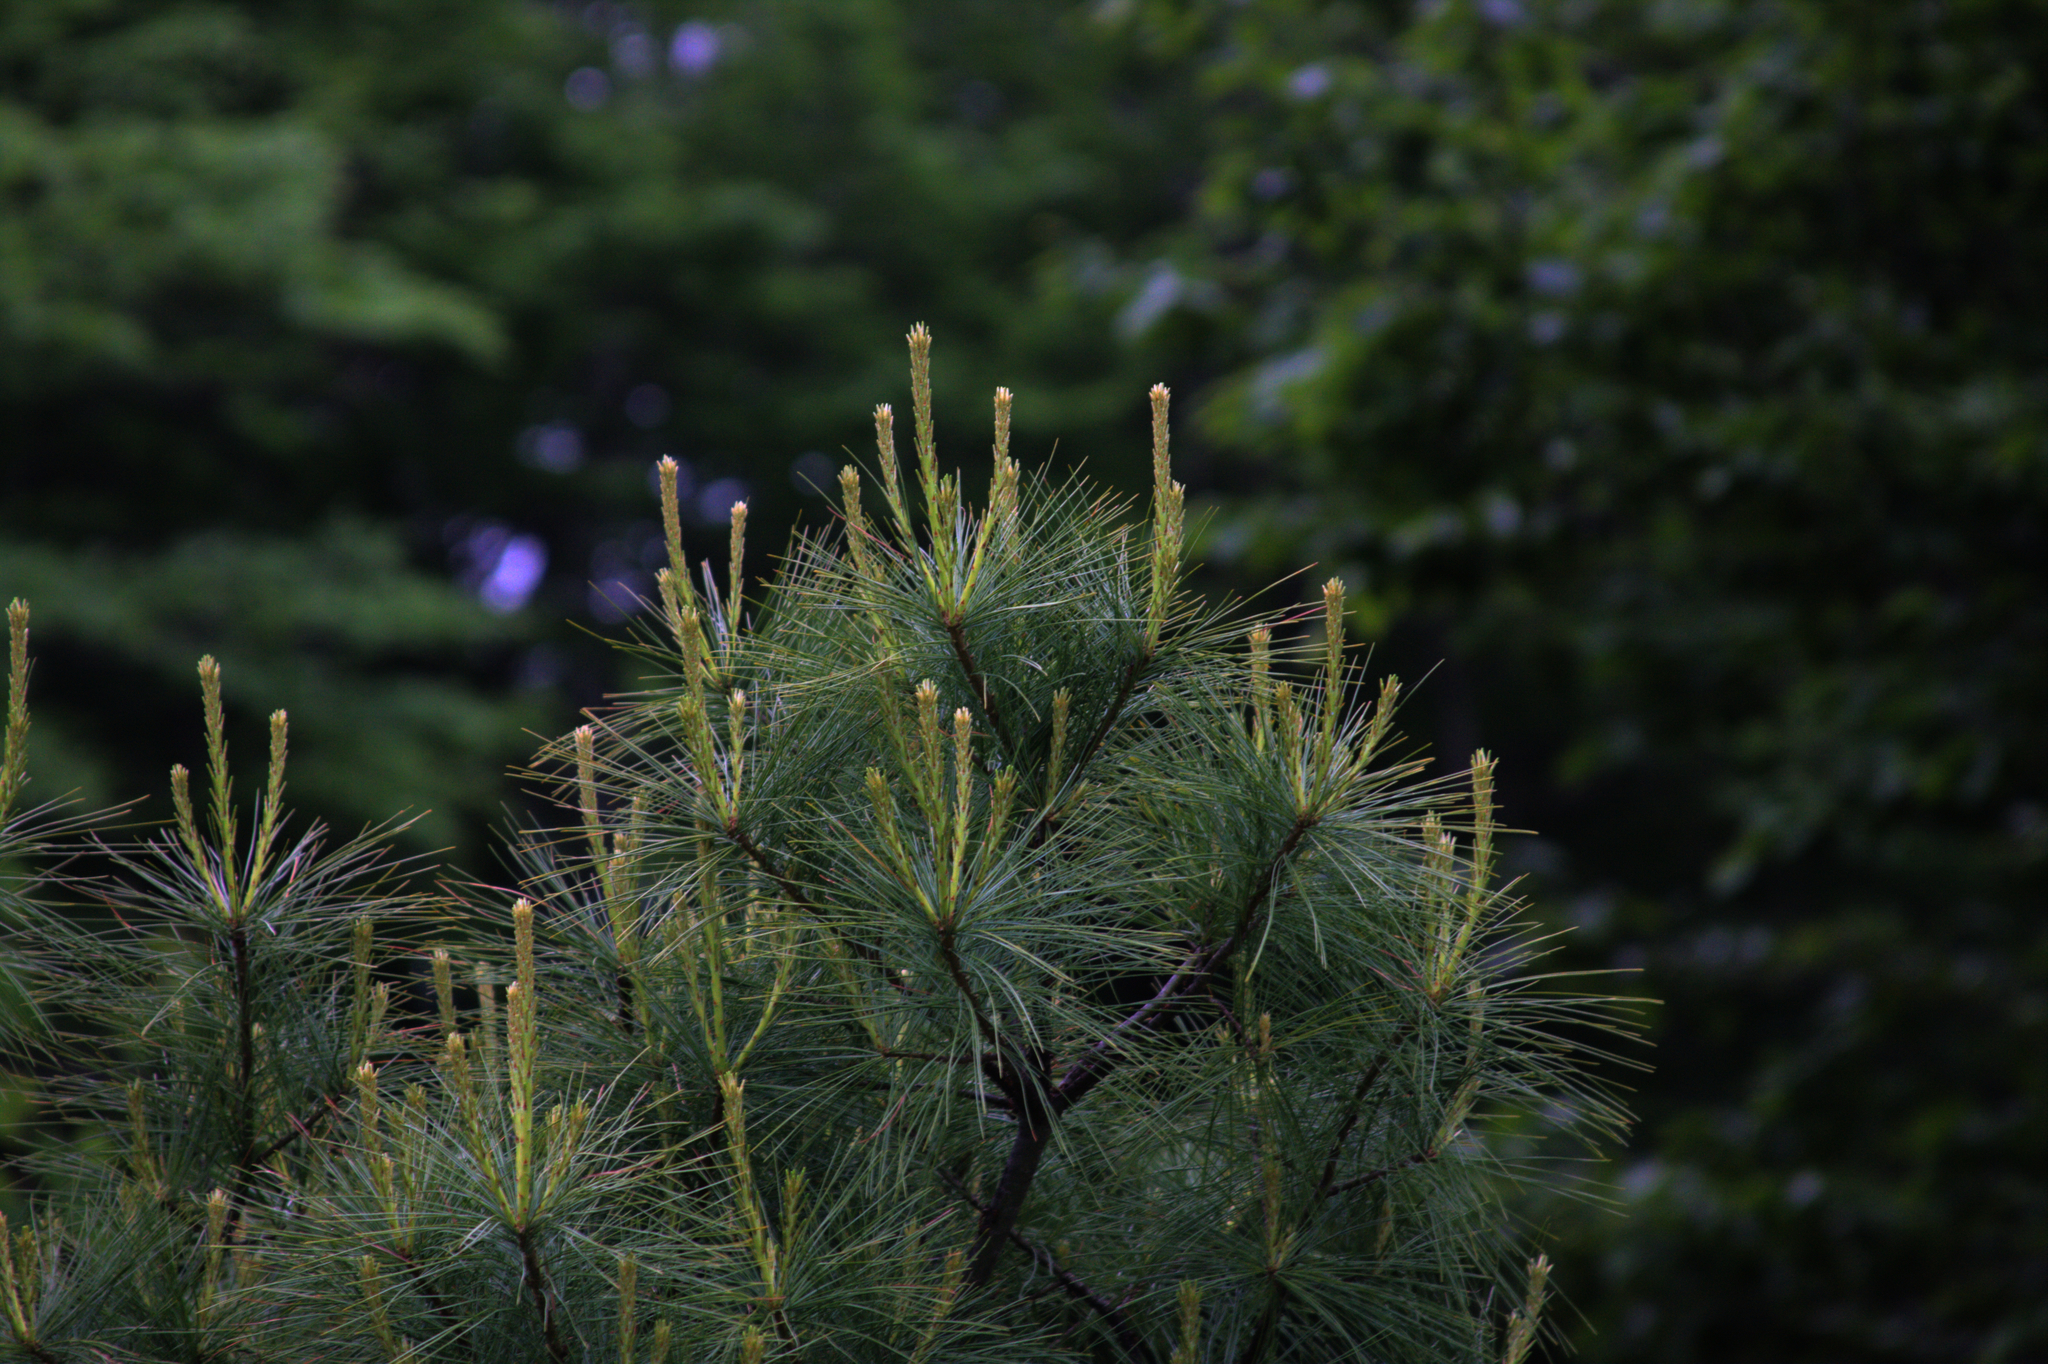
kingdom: Plantae
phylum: Tracheophyta
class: Pinopsida
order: Pinales
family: Pinaceae
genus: Pinus
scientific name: Pinus strobus
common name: Weymouth pine
